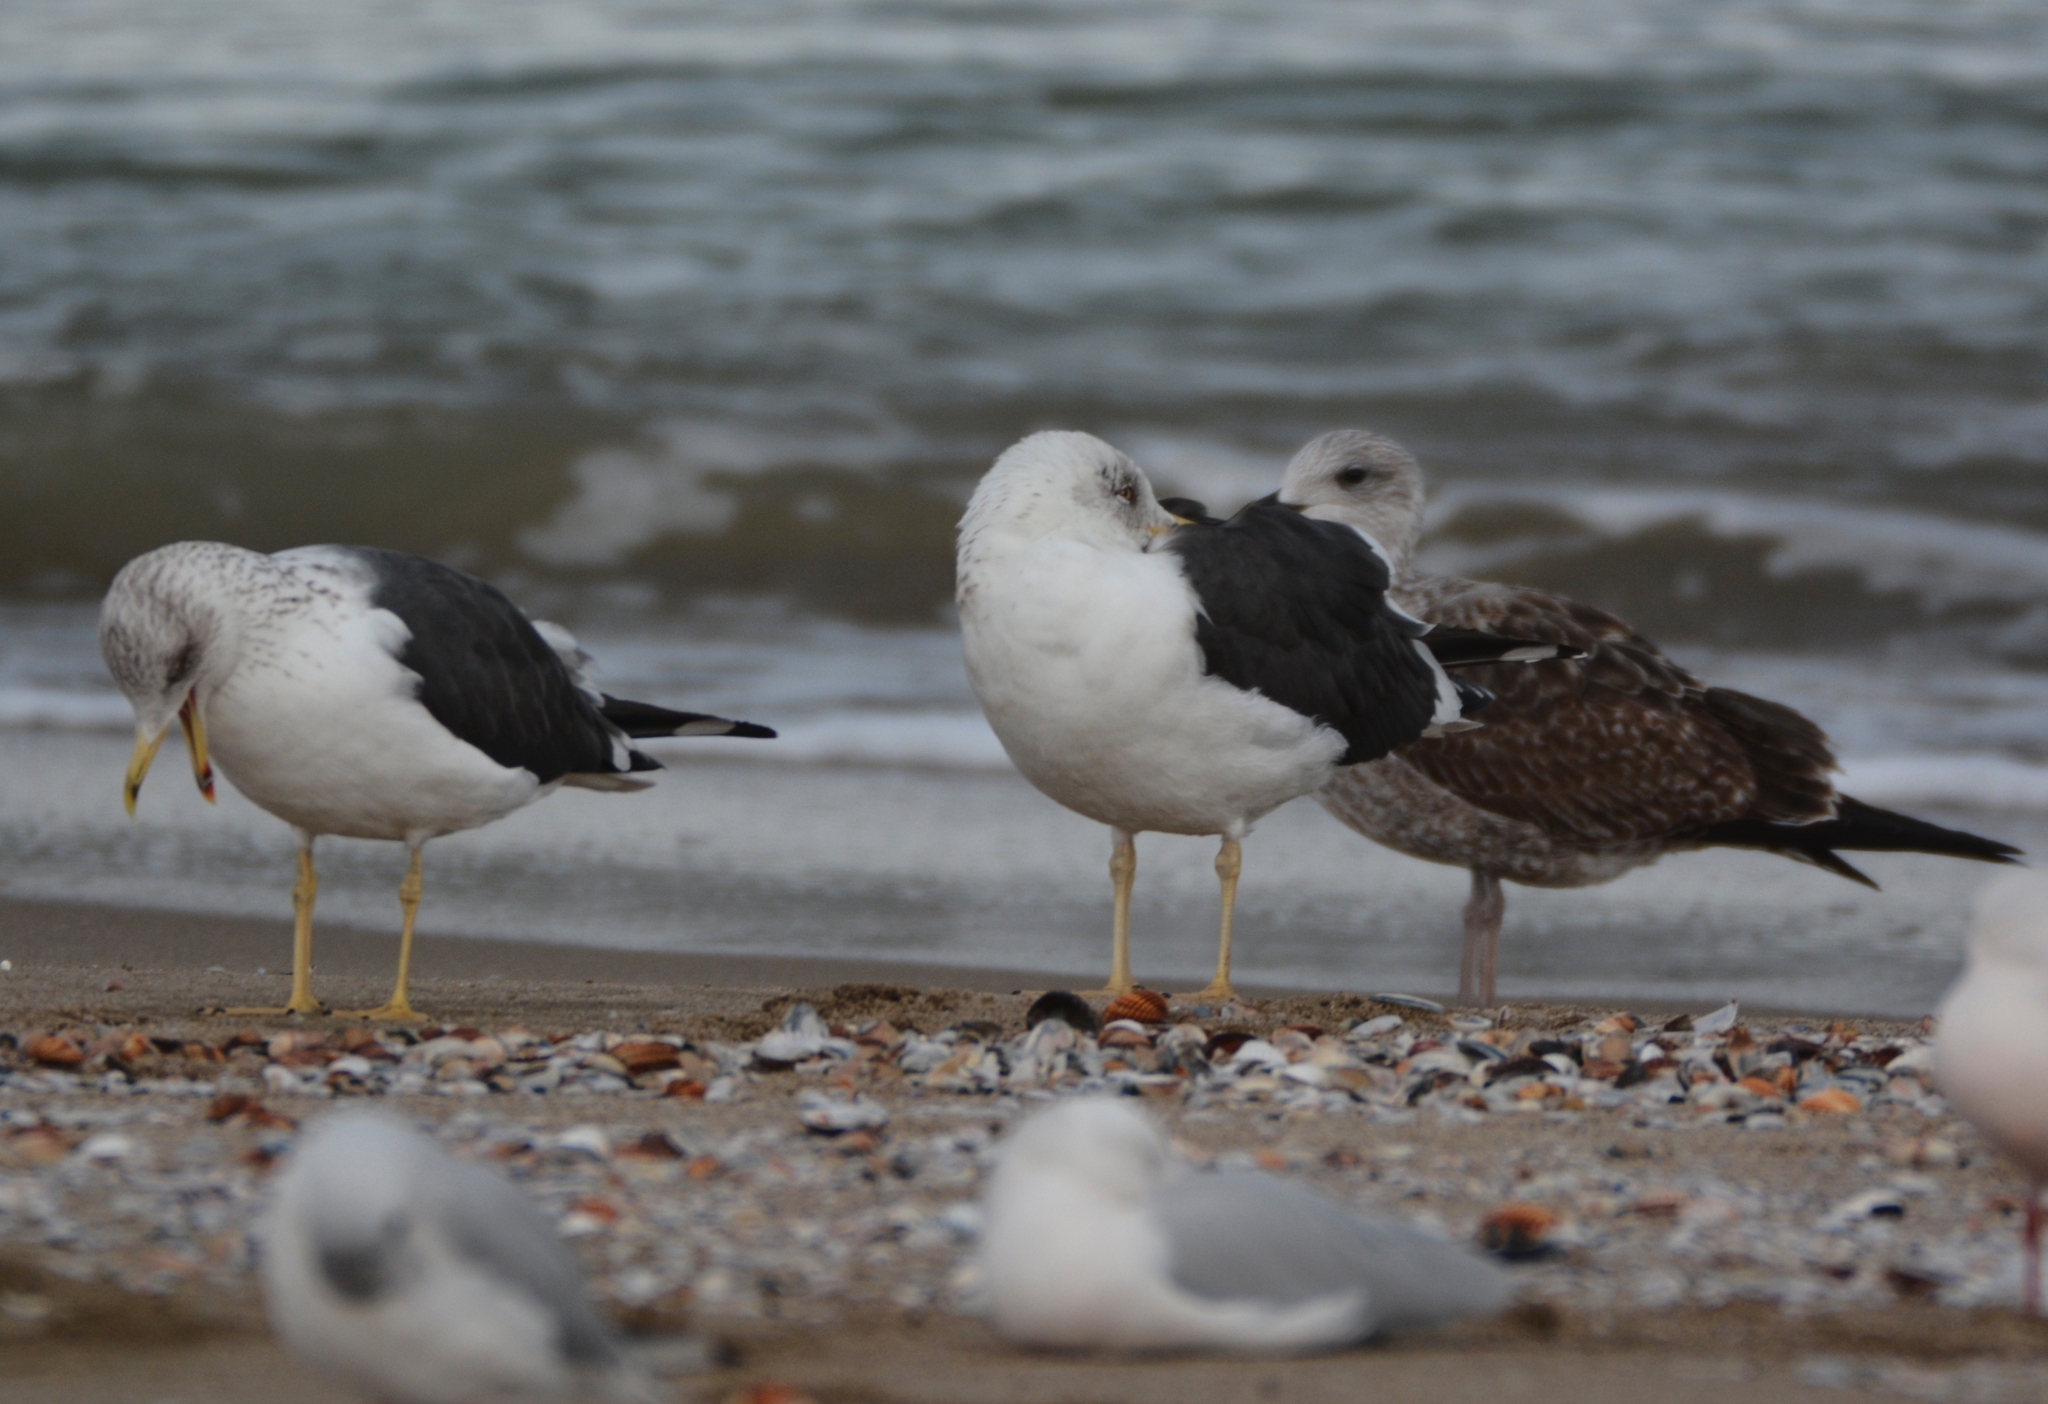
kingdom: Animalia
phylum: Chordata
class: Aves
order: Charadriiformes
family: Laridae
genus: Larus
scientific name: Larus fuscus
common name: Lesser black-backed gull
